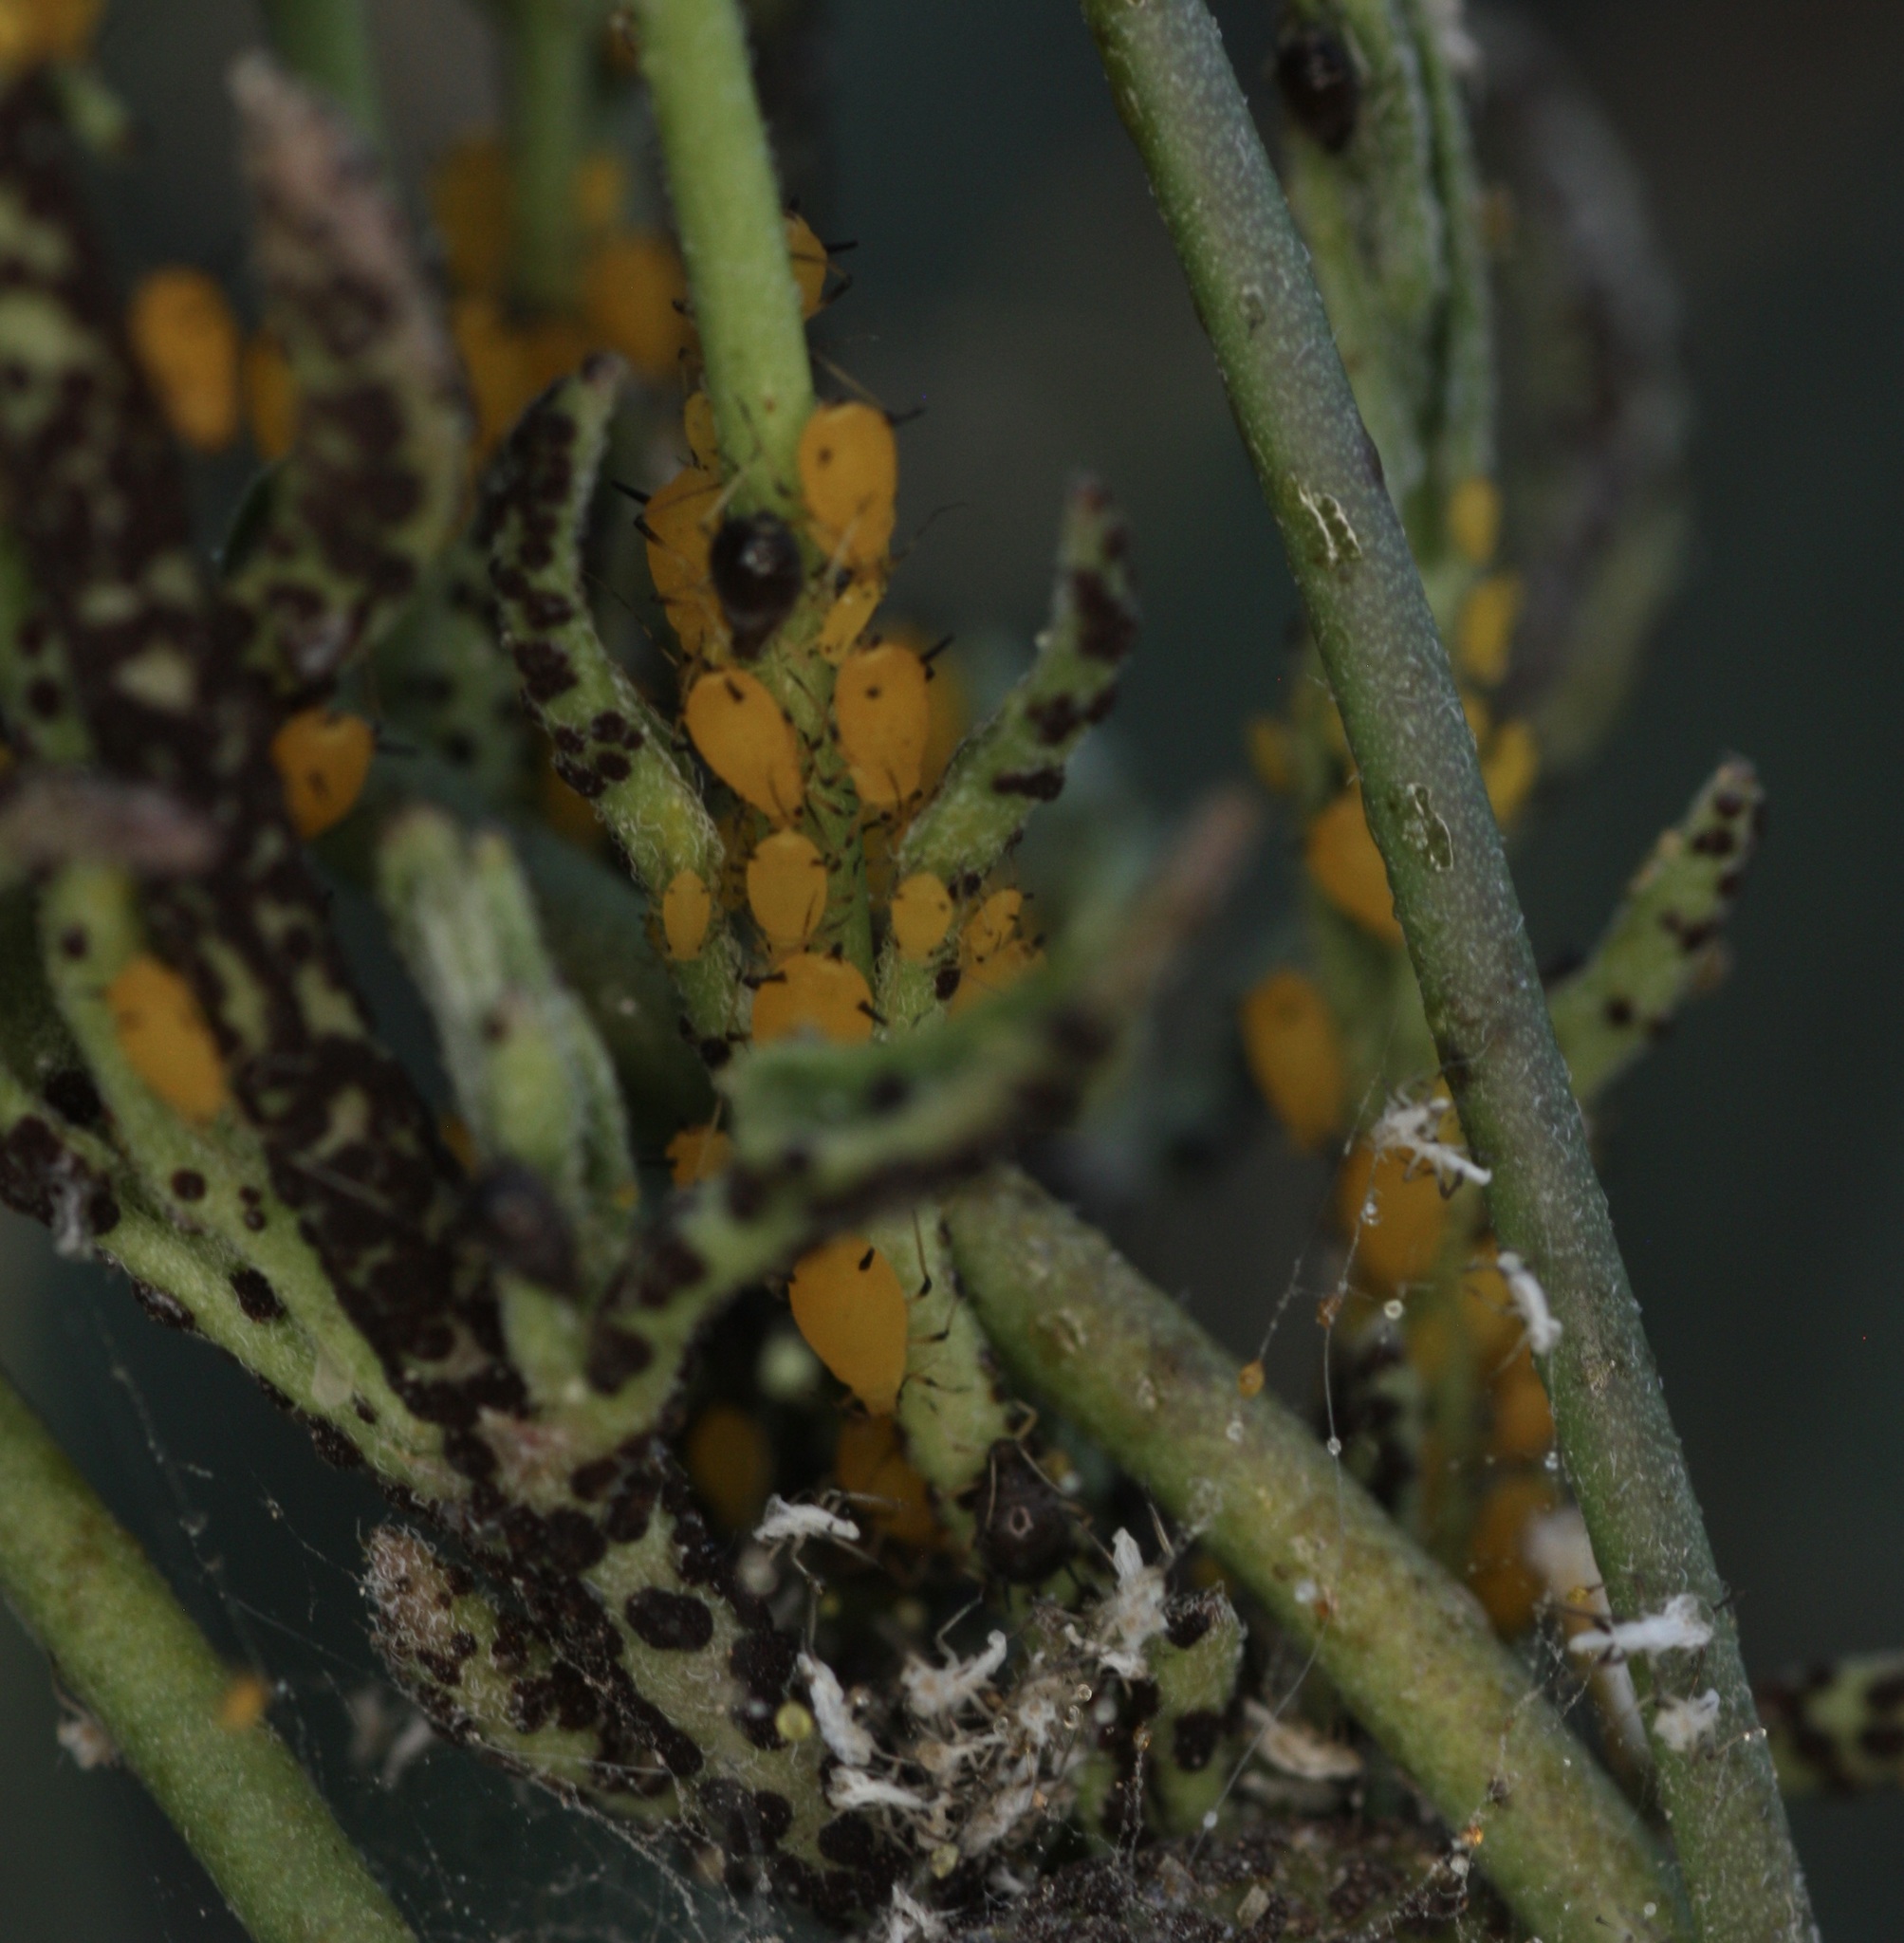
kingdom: Animalia
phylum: Arthropoda
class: Insecta
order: Hemiptera
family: Aphididae
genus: Aphis
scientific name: Aphis nerii
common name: Oleander aphid
